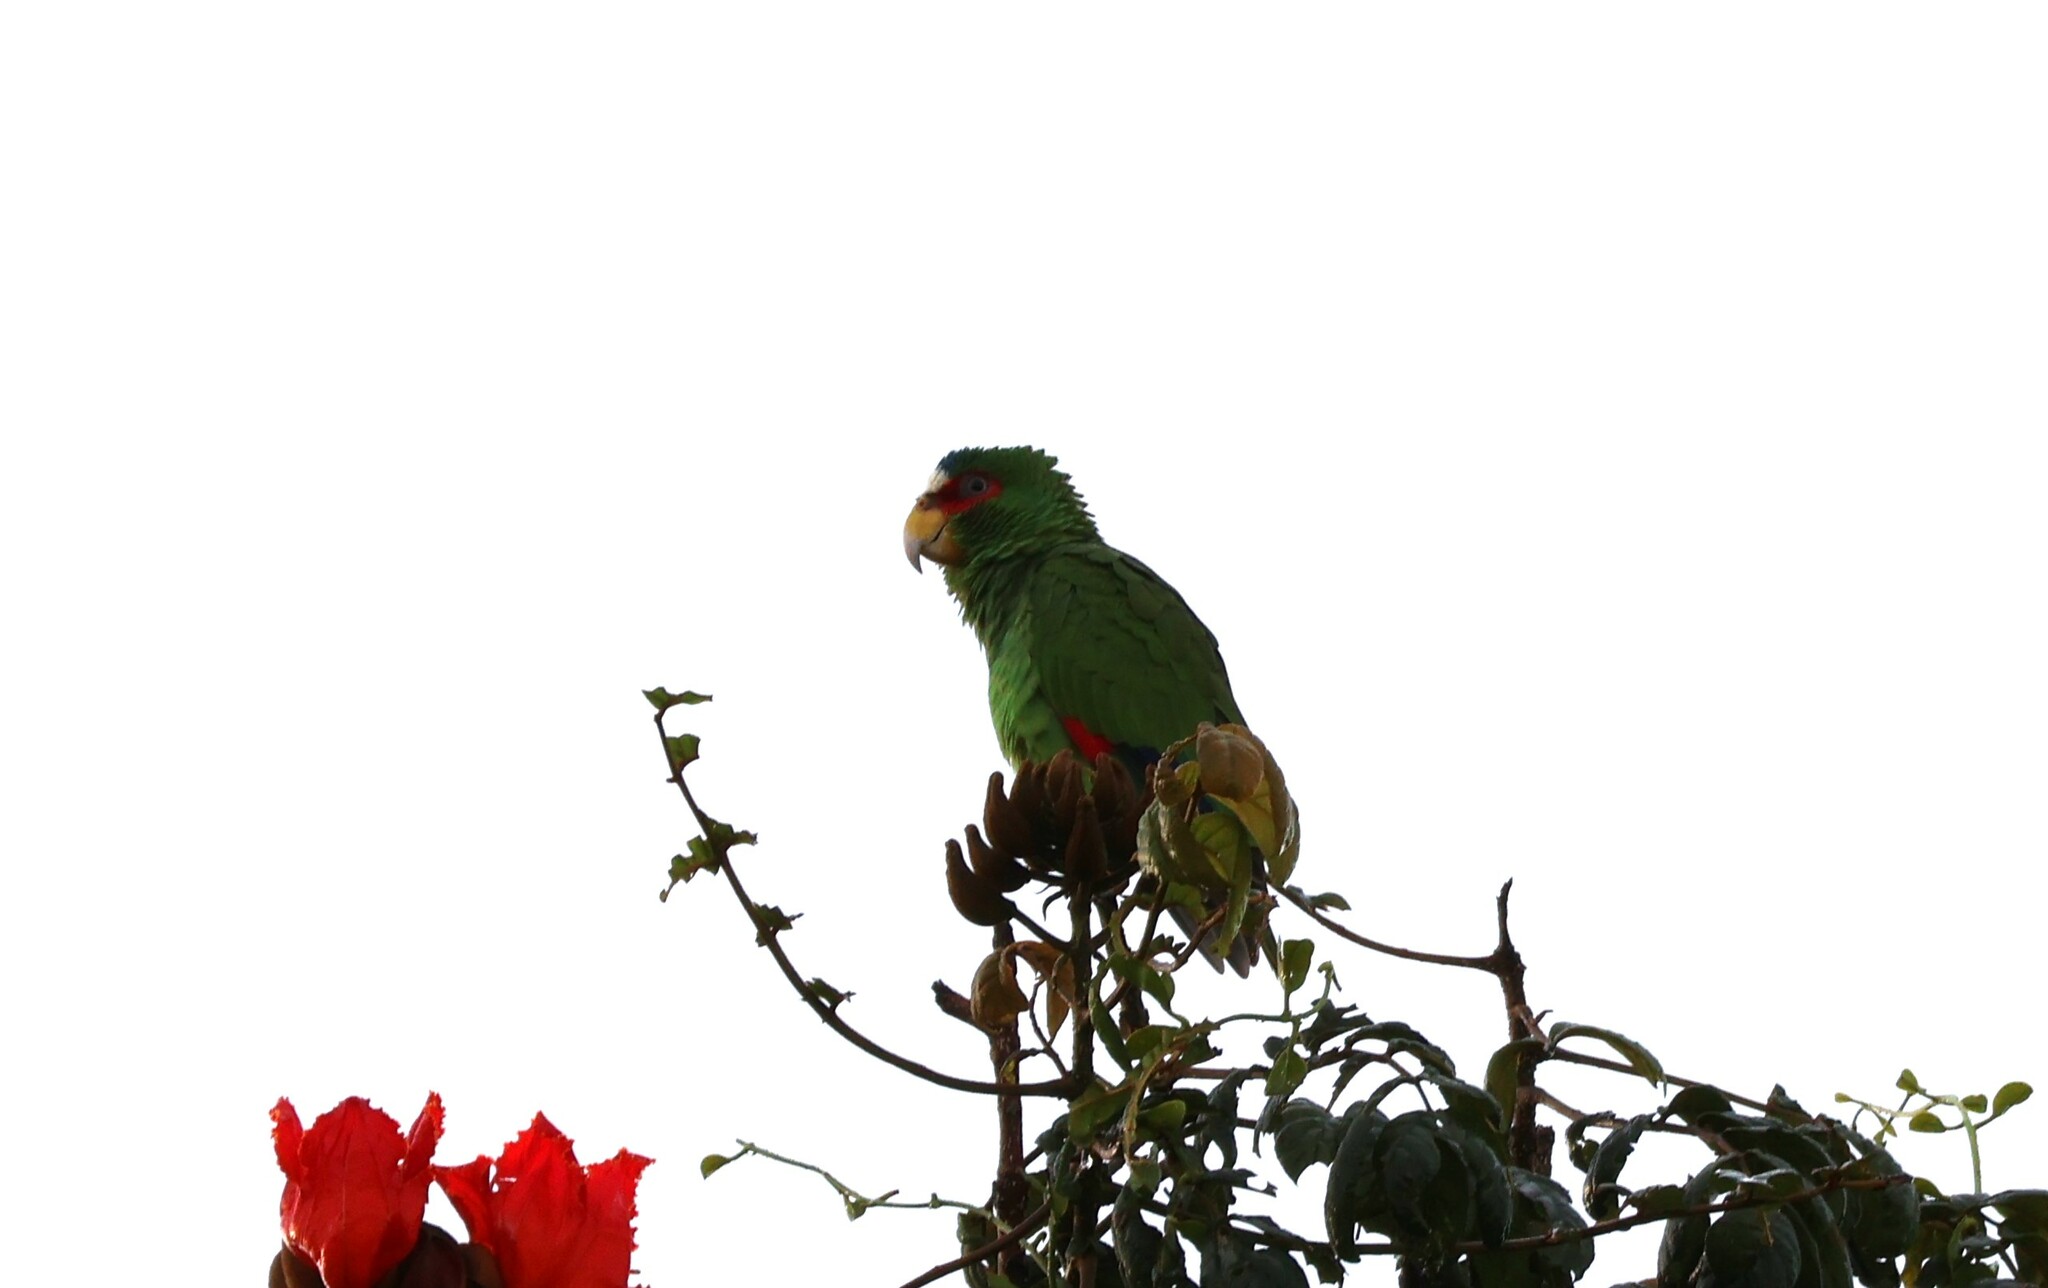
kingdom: Animalia
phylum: Chordata
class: Aves
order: Psittaciformes
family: Psittacidae
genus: Amazona
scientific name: Amazona albifrons
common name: White-fronted amazon
